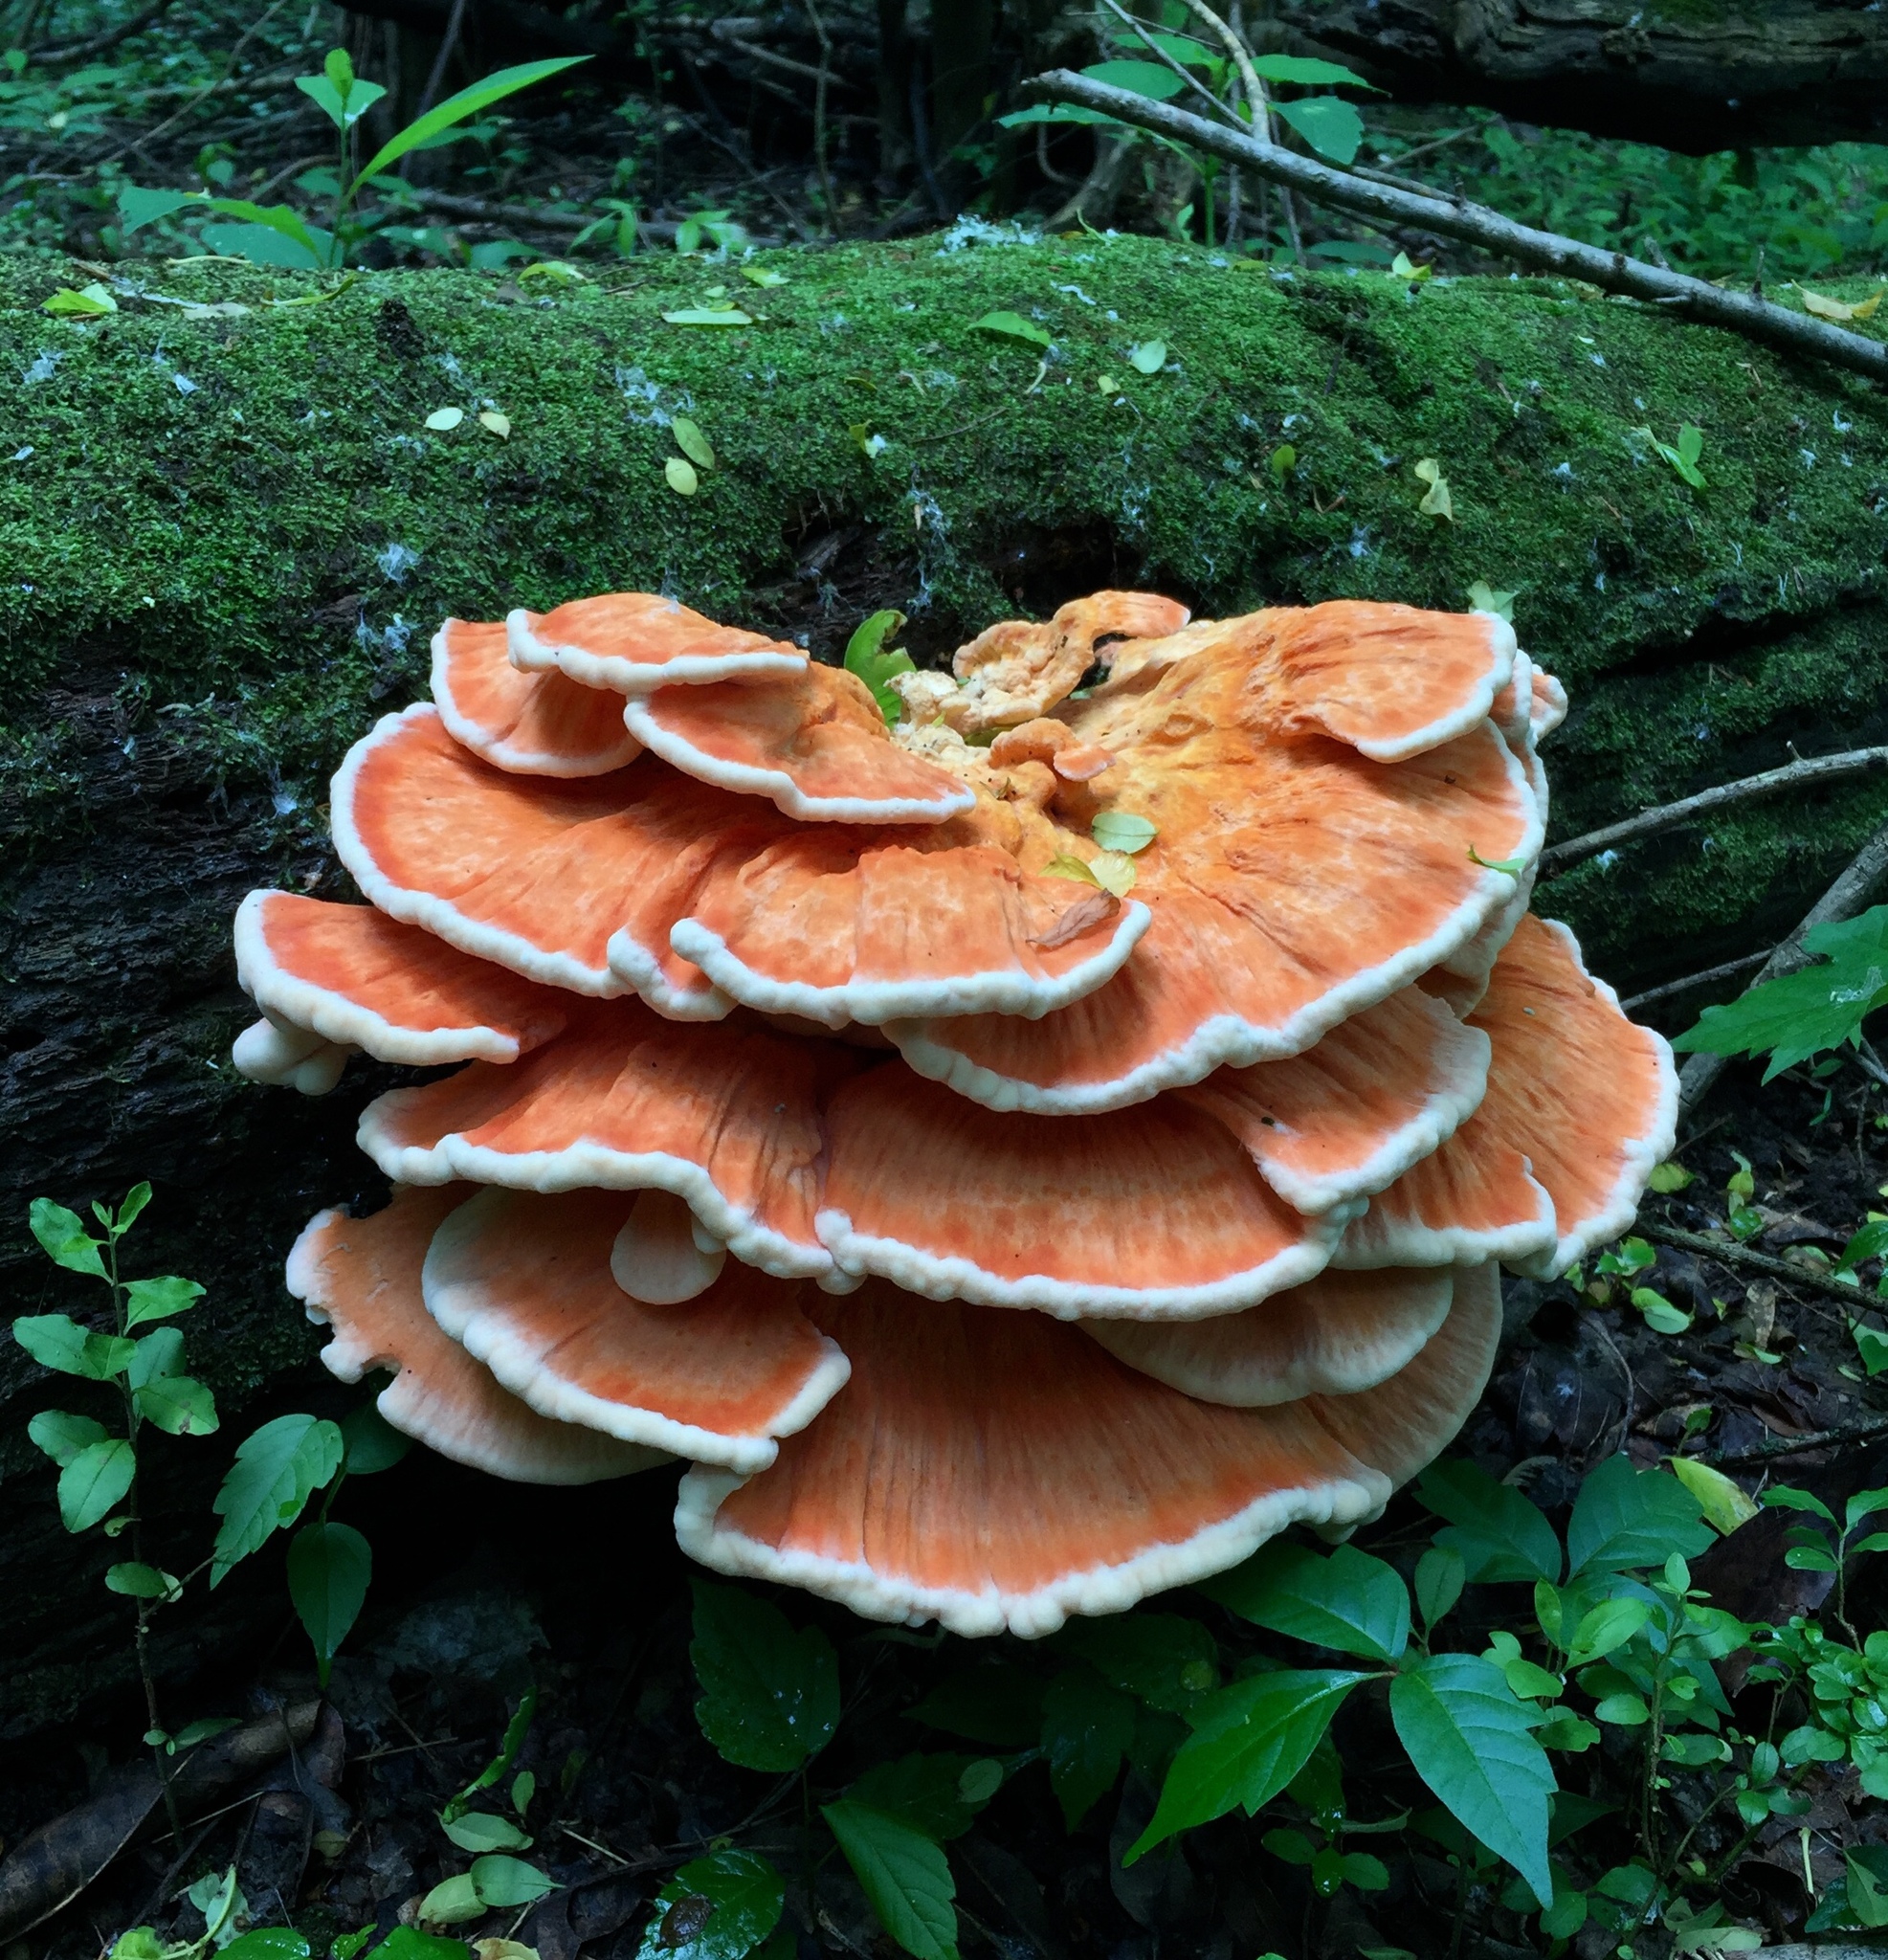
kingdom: Fungi
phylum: Basidiomycota
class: Agaricomycetes
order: Polyporales
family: Laetiporaceae
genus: Laetiporus
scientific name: Laetiporus sulphureus
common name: Chicken of the woods
